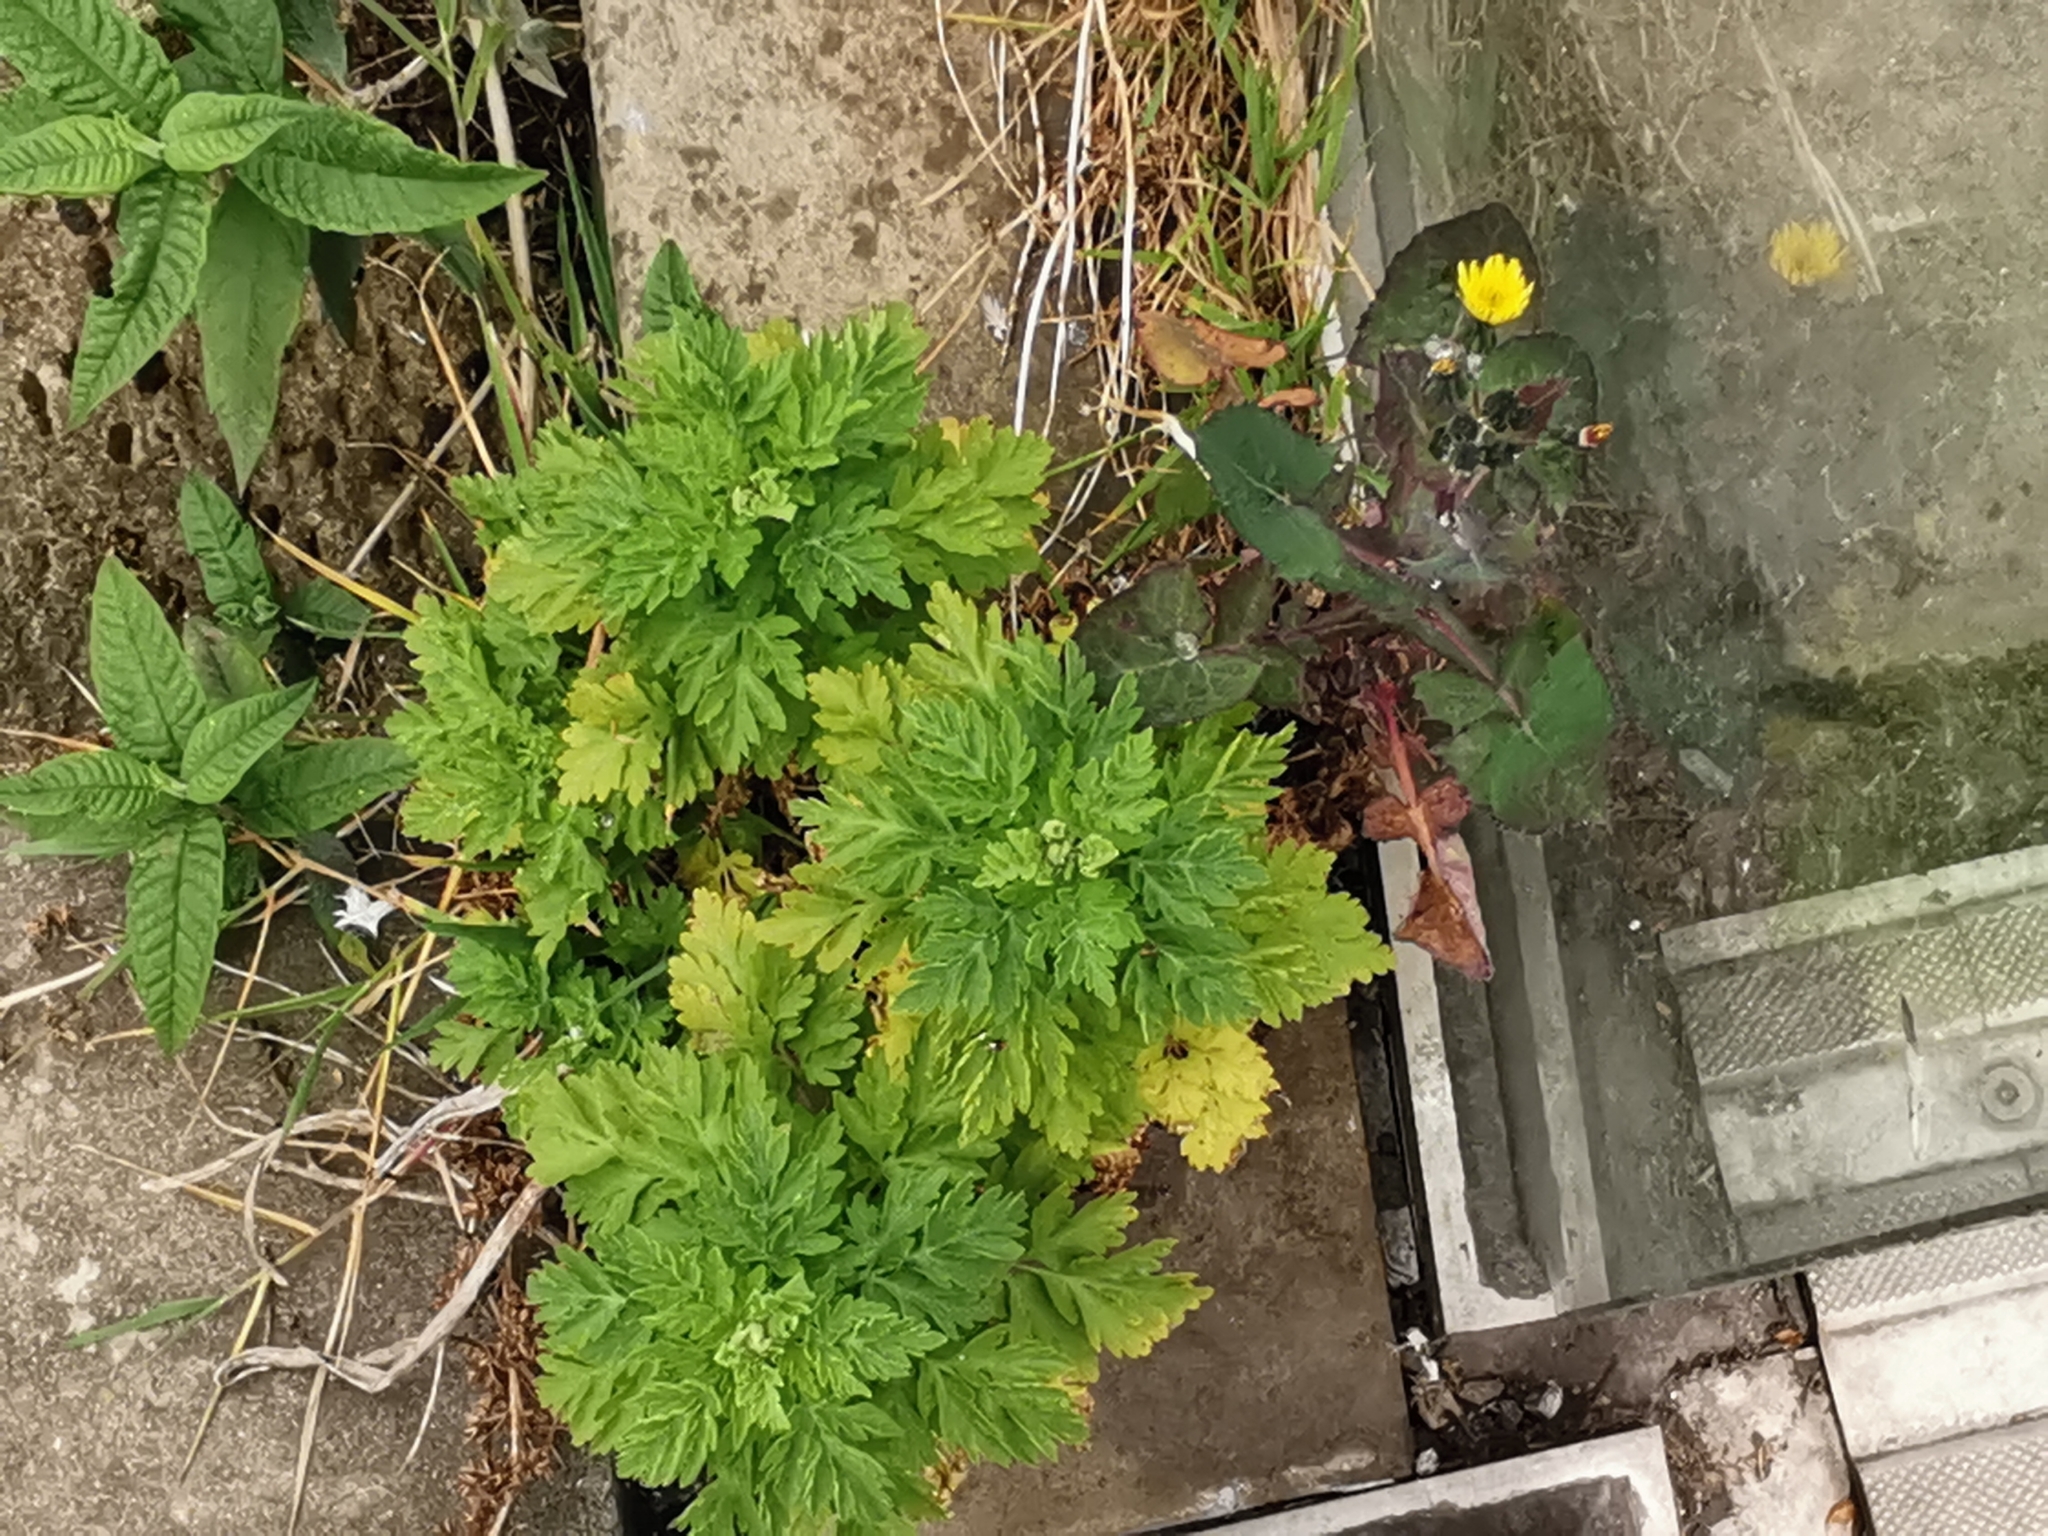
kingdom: Plantae
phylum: Tracheophyta
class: Magnoliopsida
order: Asterales
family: Asteraceae
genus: Tanacetum
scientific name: Tanacetum parthenium
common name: Feverfew
